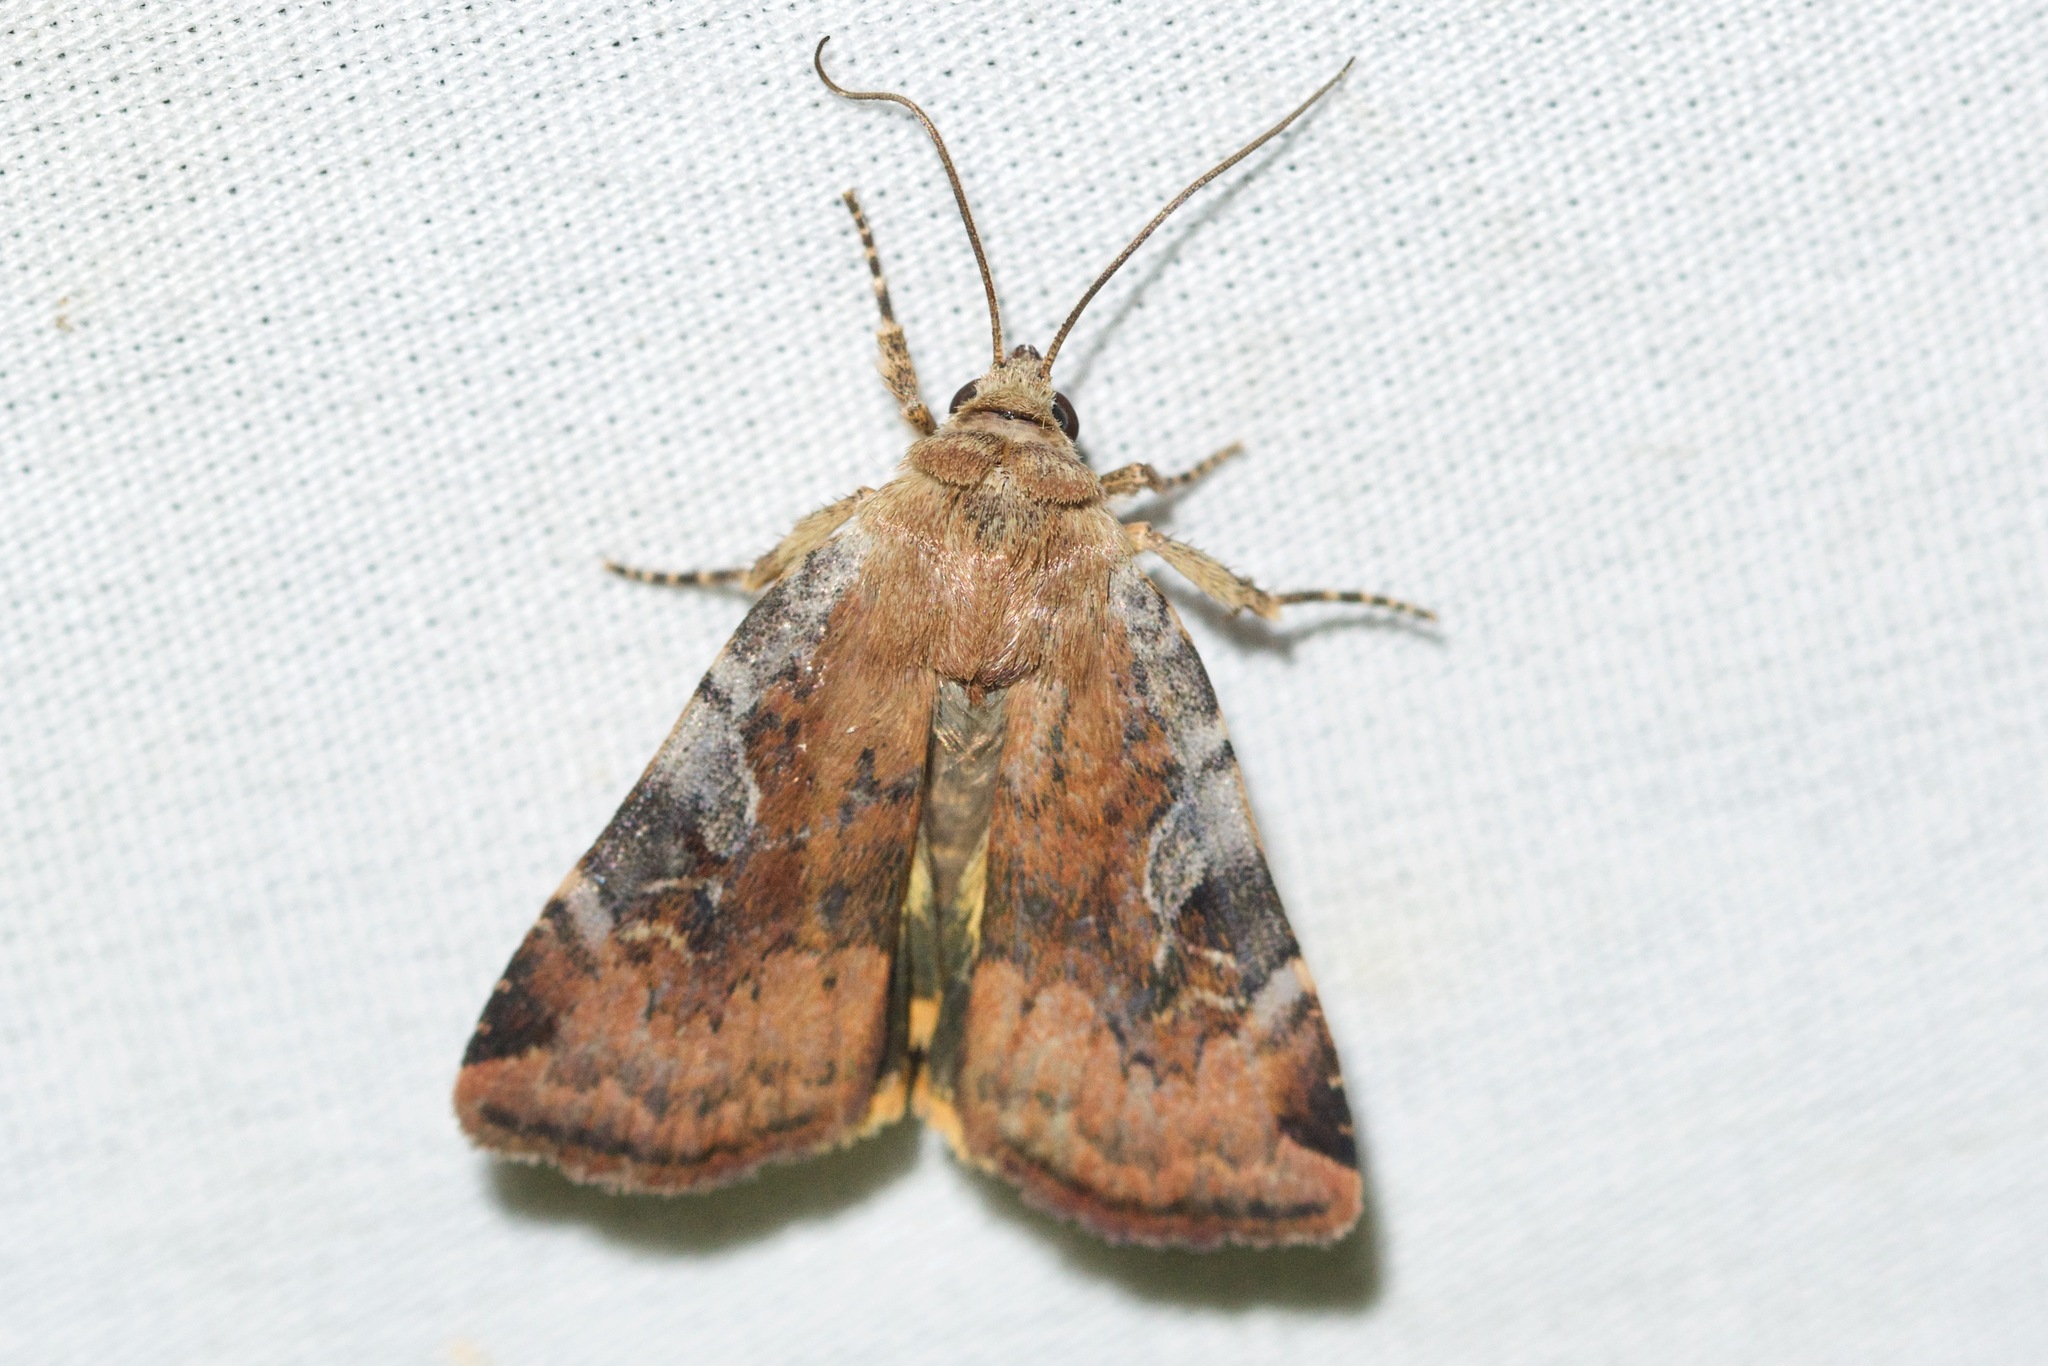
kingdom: Animalia
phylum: Arthropoda
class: Insecta
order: Lepidoptera
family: Noctuidae
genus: Cryptocala
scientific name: Cryptocala acadiensis
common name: Catocaline dart
